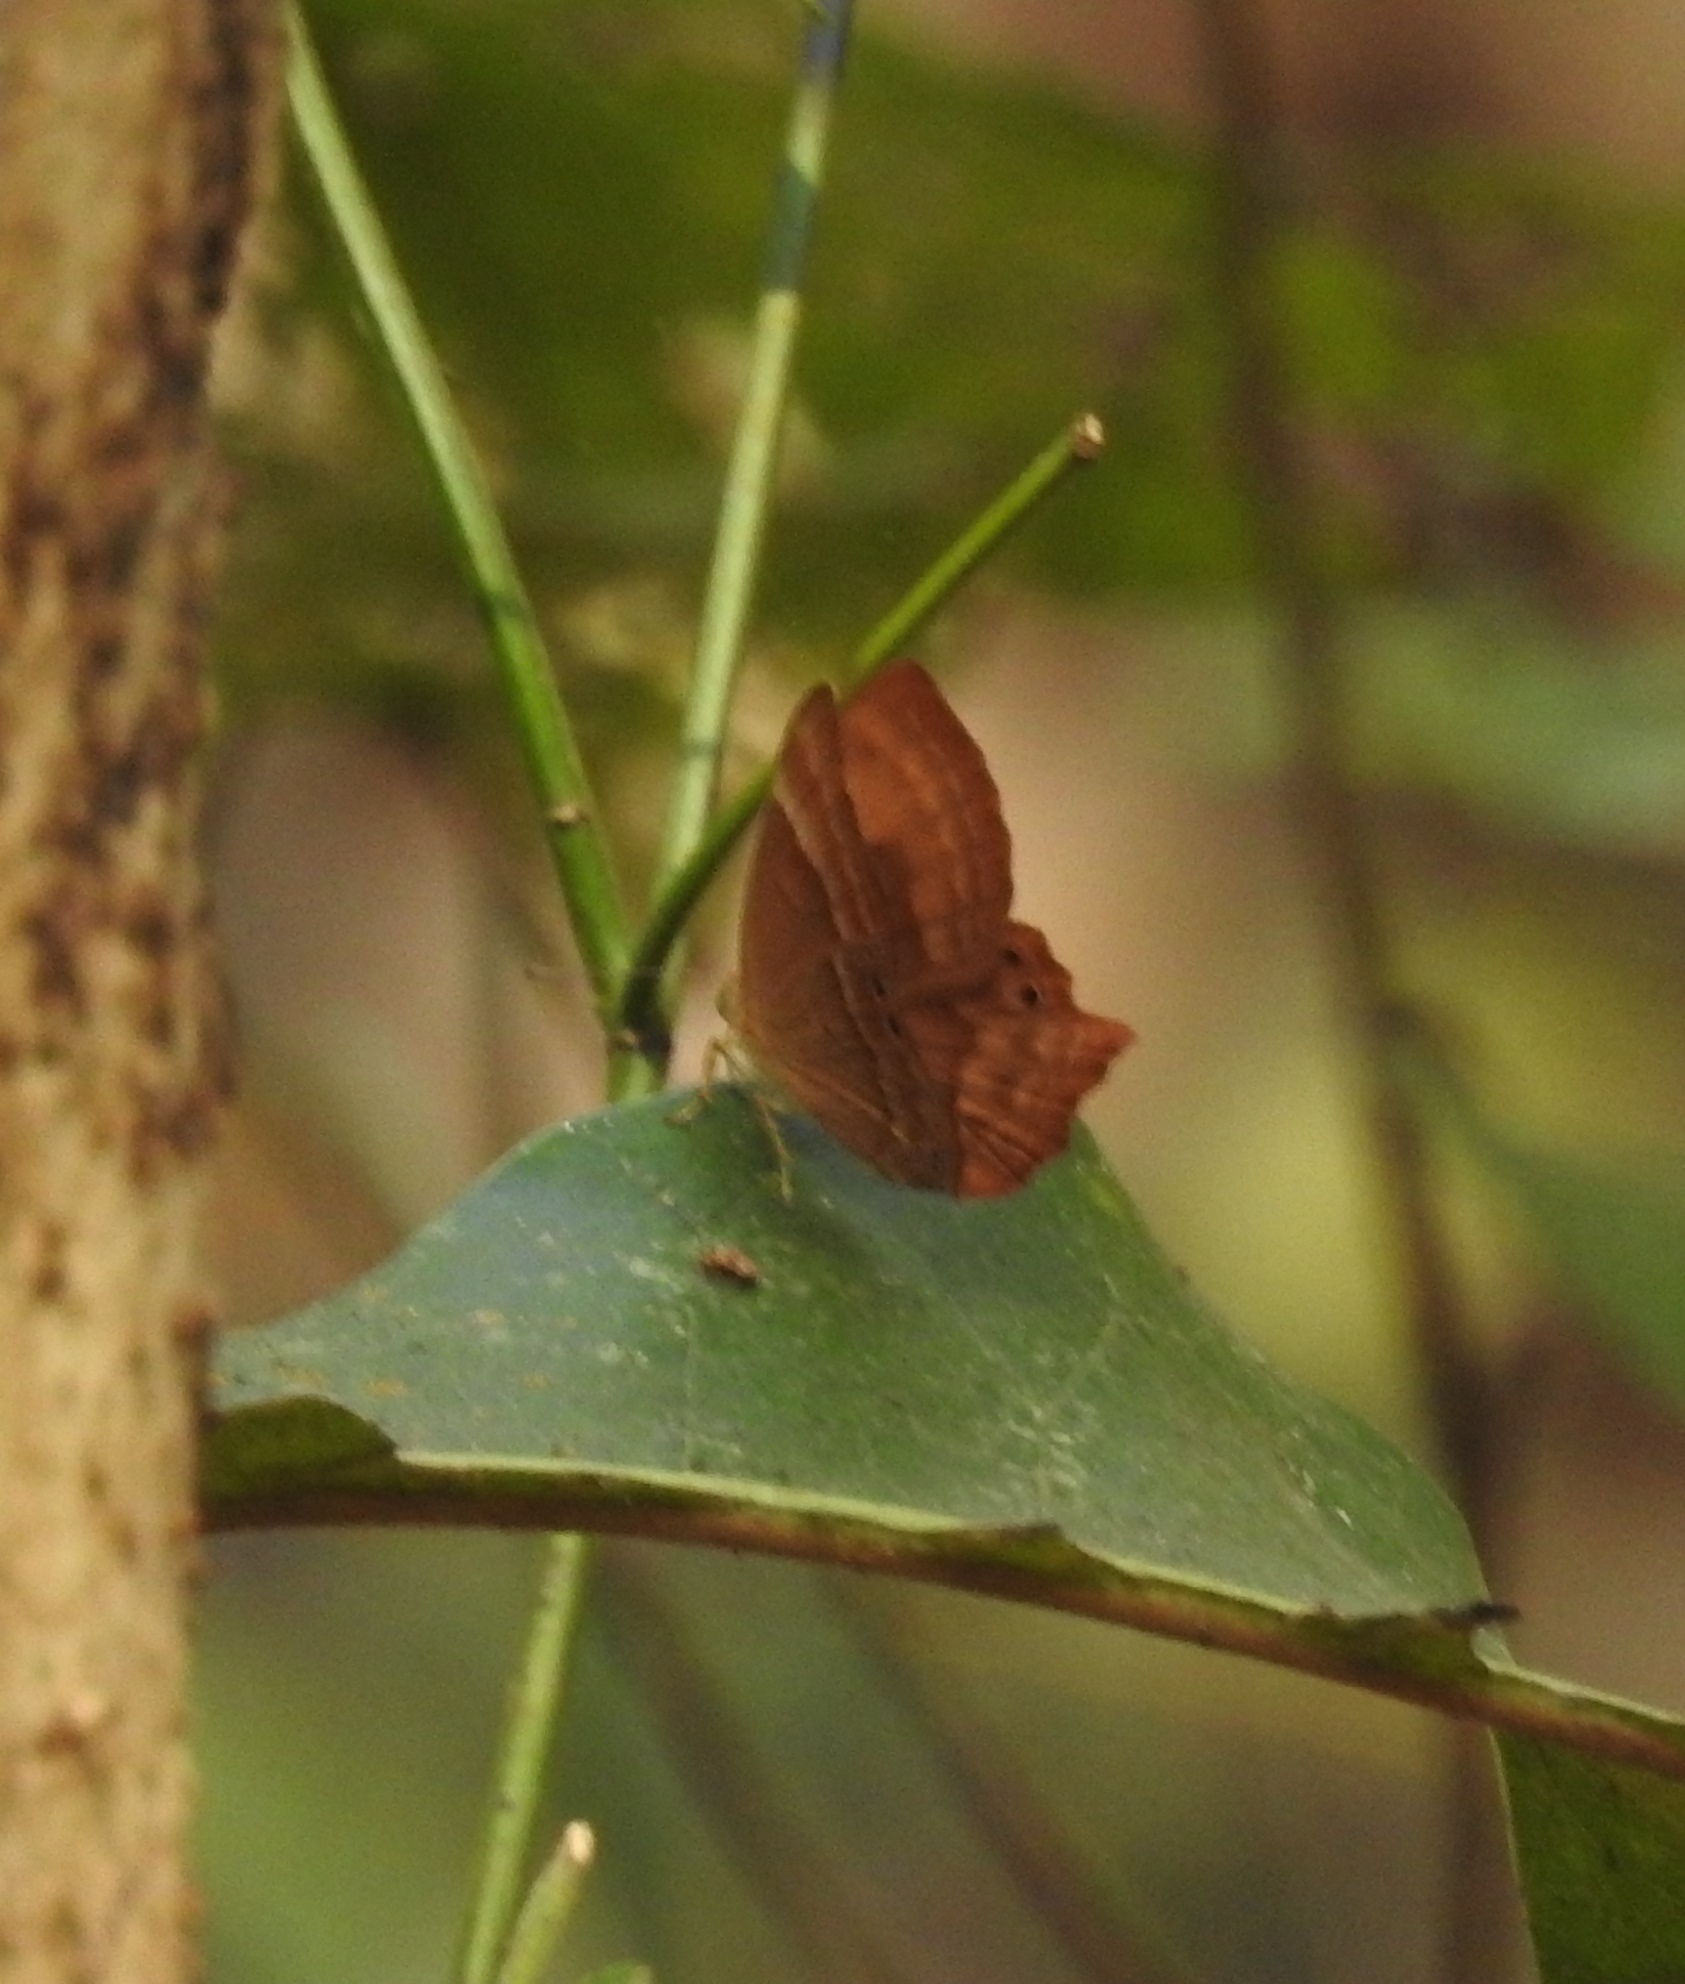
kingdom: Animalia
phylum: Arthropoda
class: Insecta
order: Lepidoptera
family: Lycaenidae
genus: Abisara
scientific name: Abisara bifasciata
